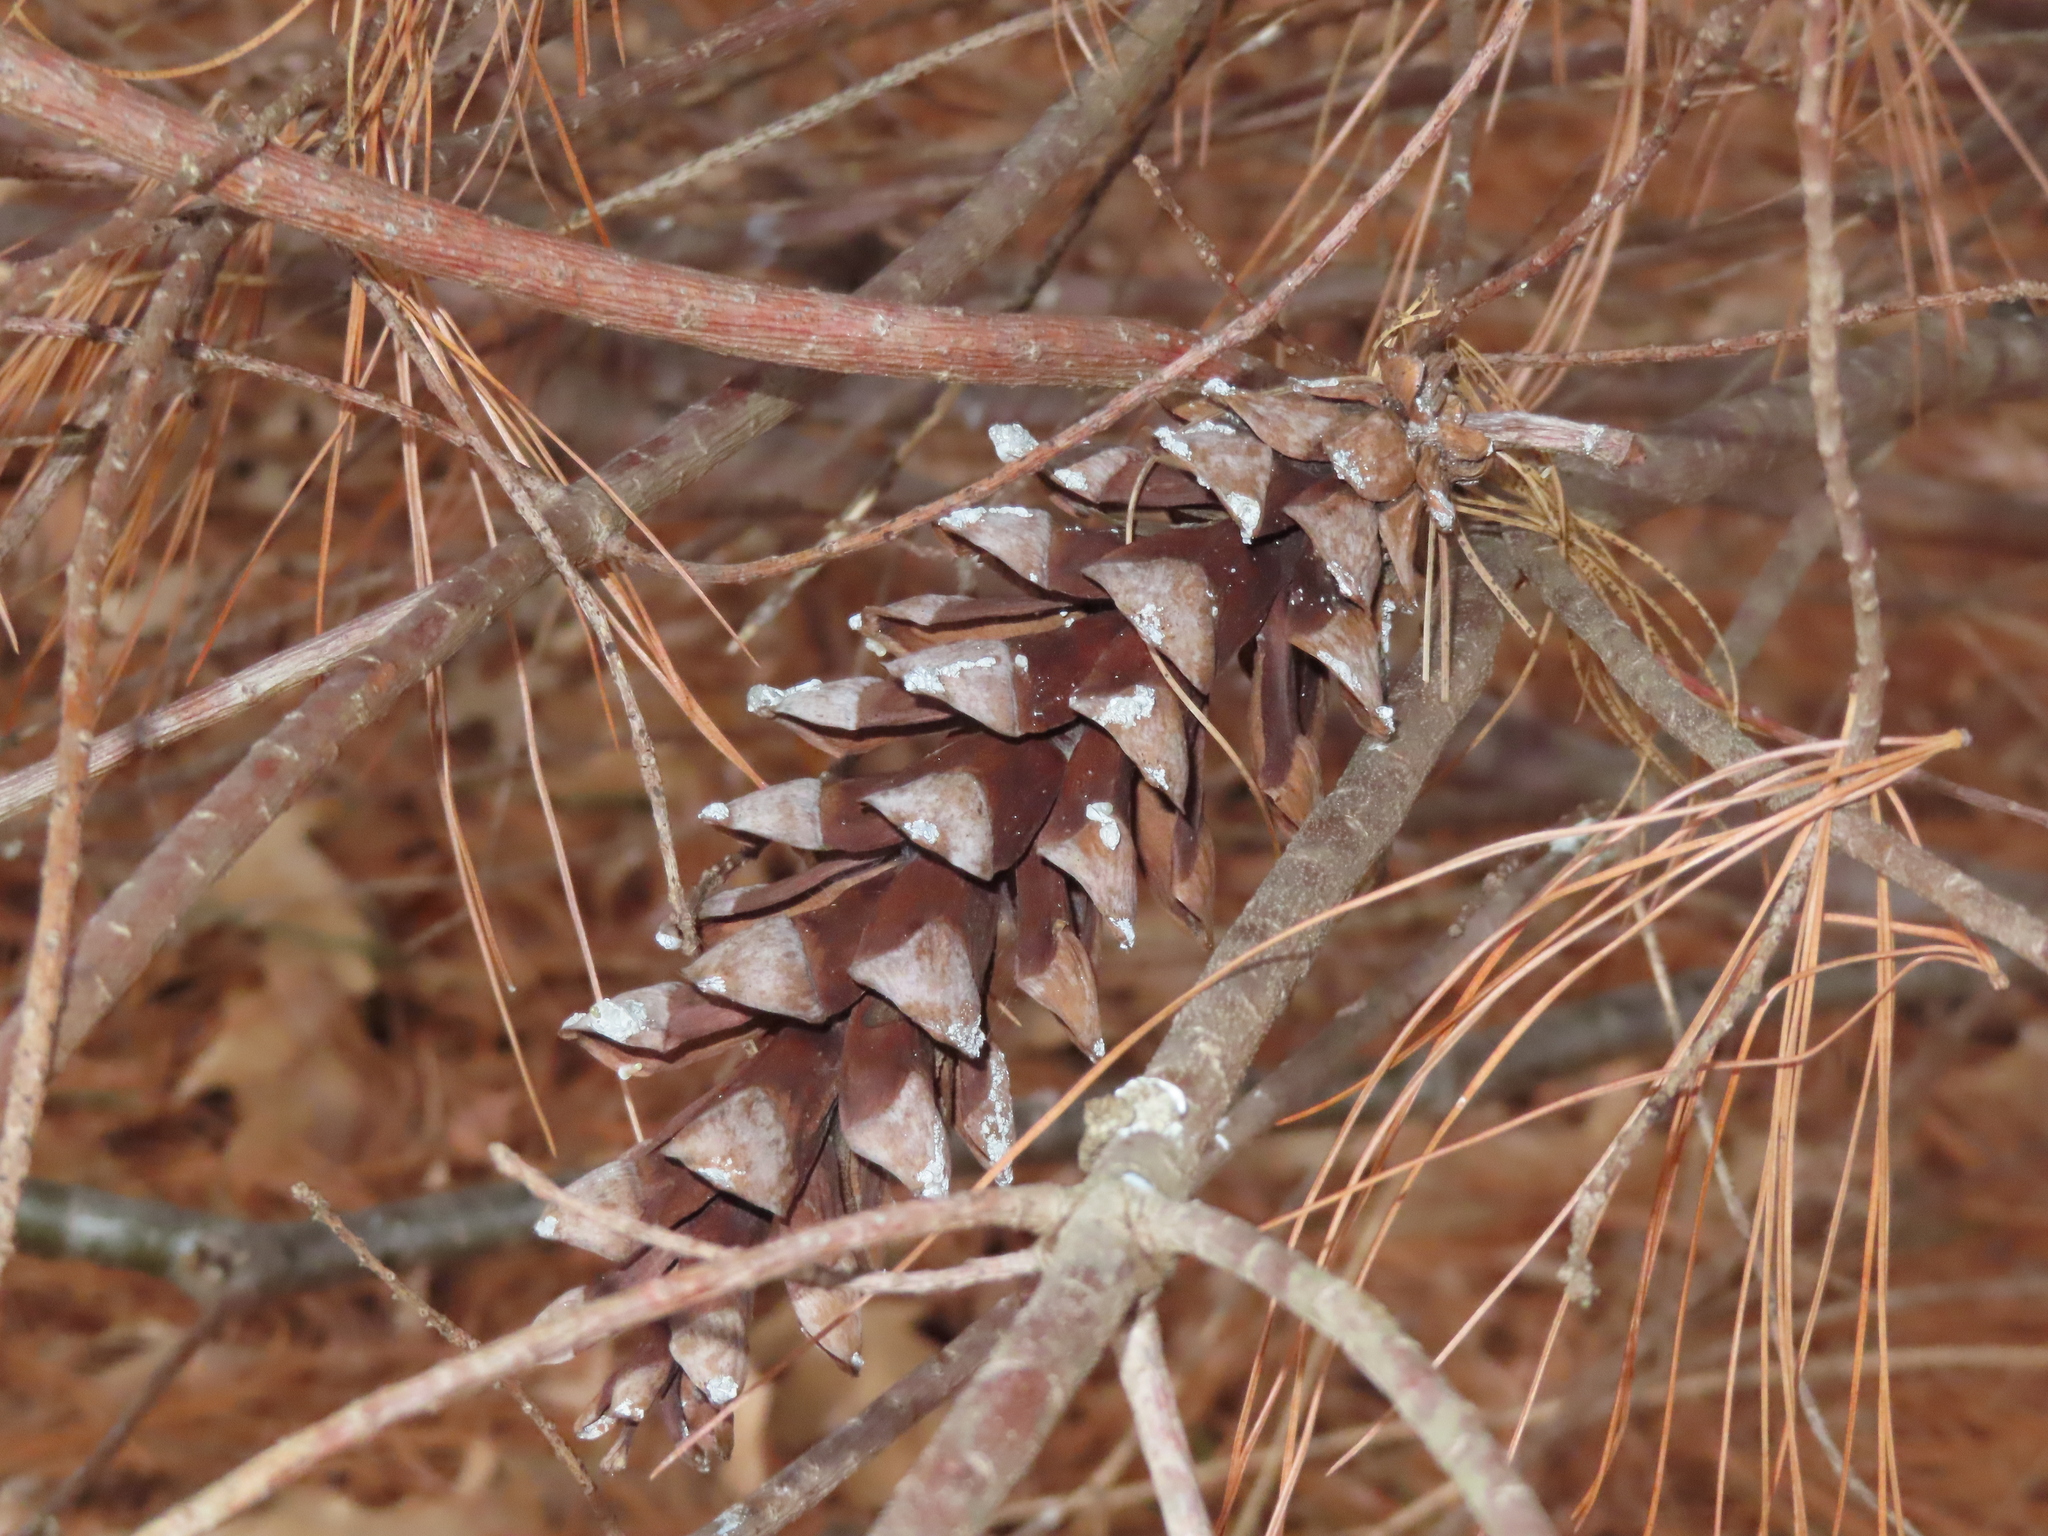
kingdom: Plantae
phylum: Tracheophyta
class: Pinopsida
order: Pinales
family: Pinaceae
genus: Pinus
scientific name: Pinus strobus
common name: Weymouth pine
